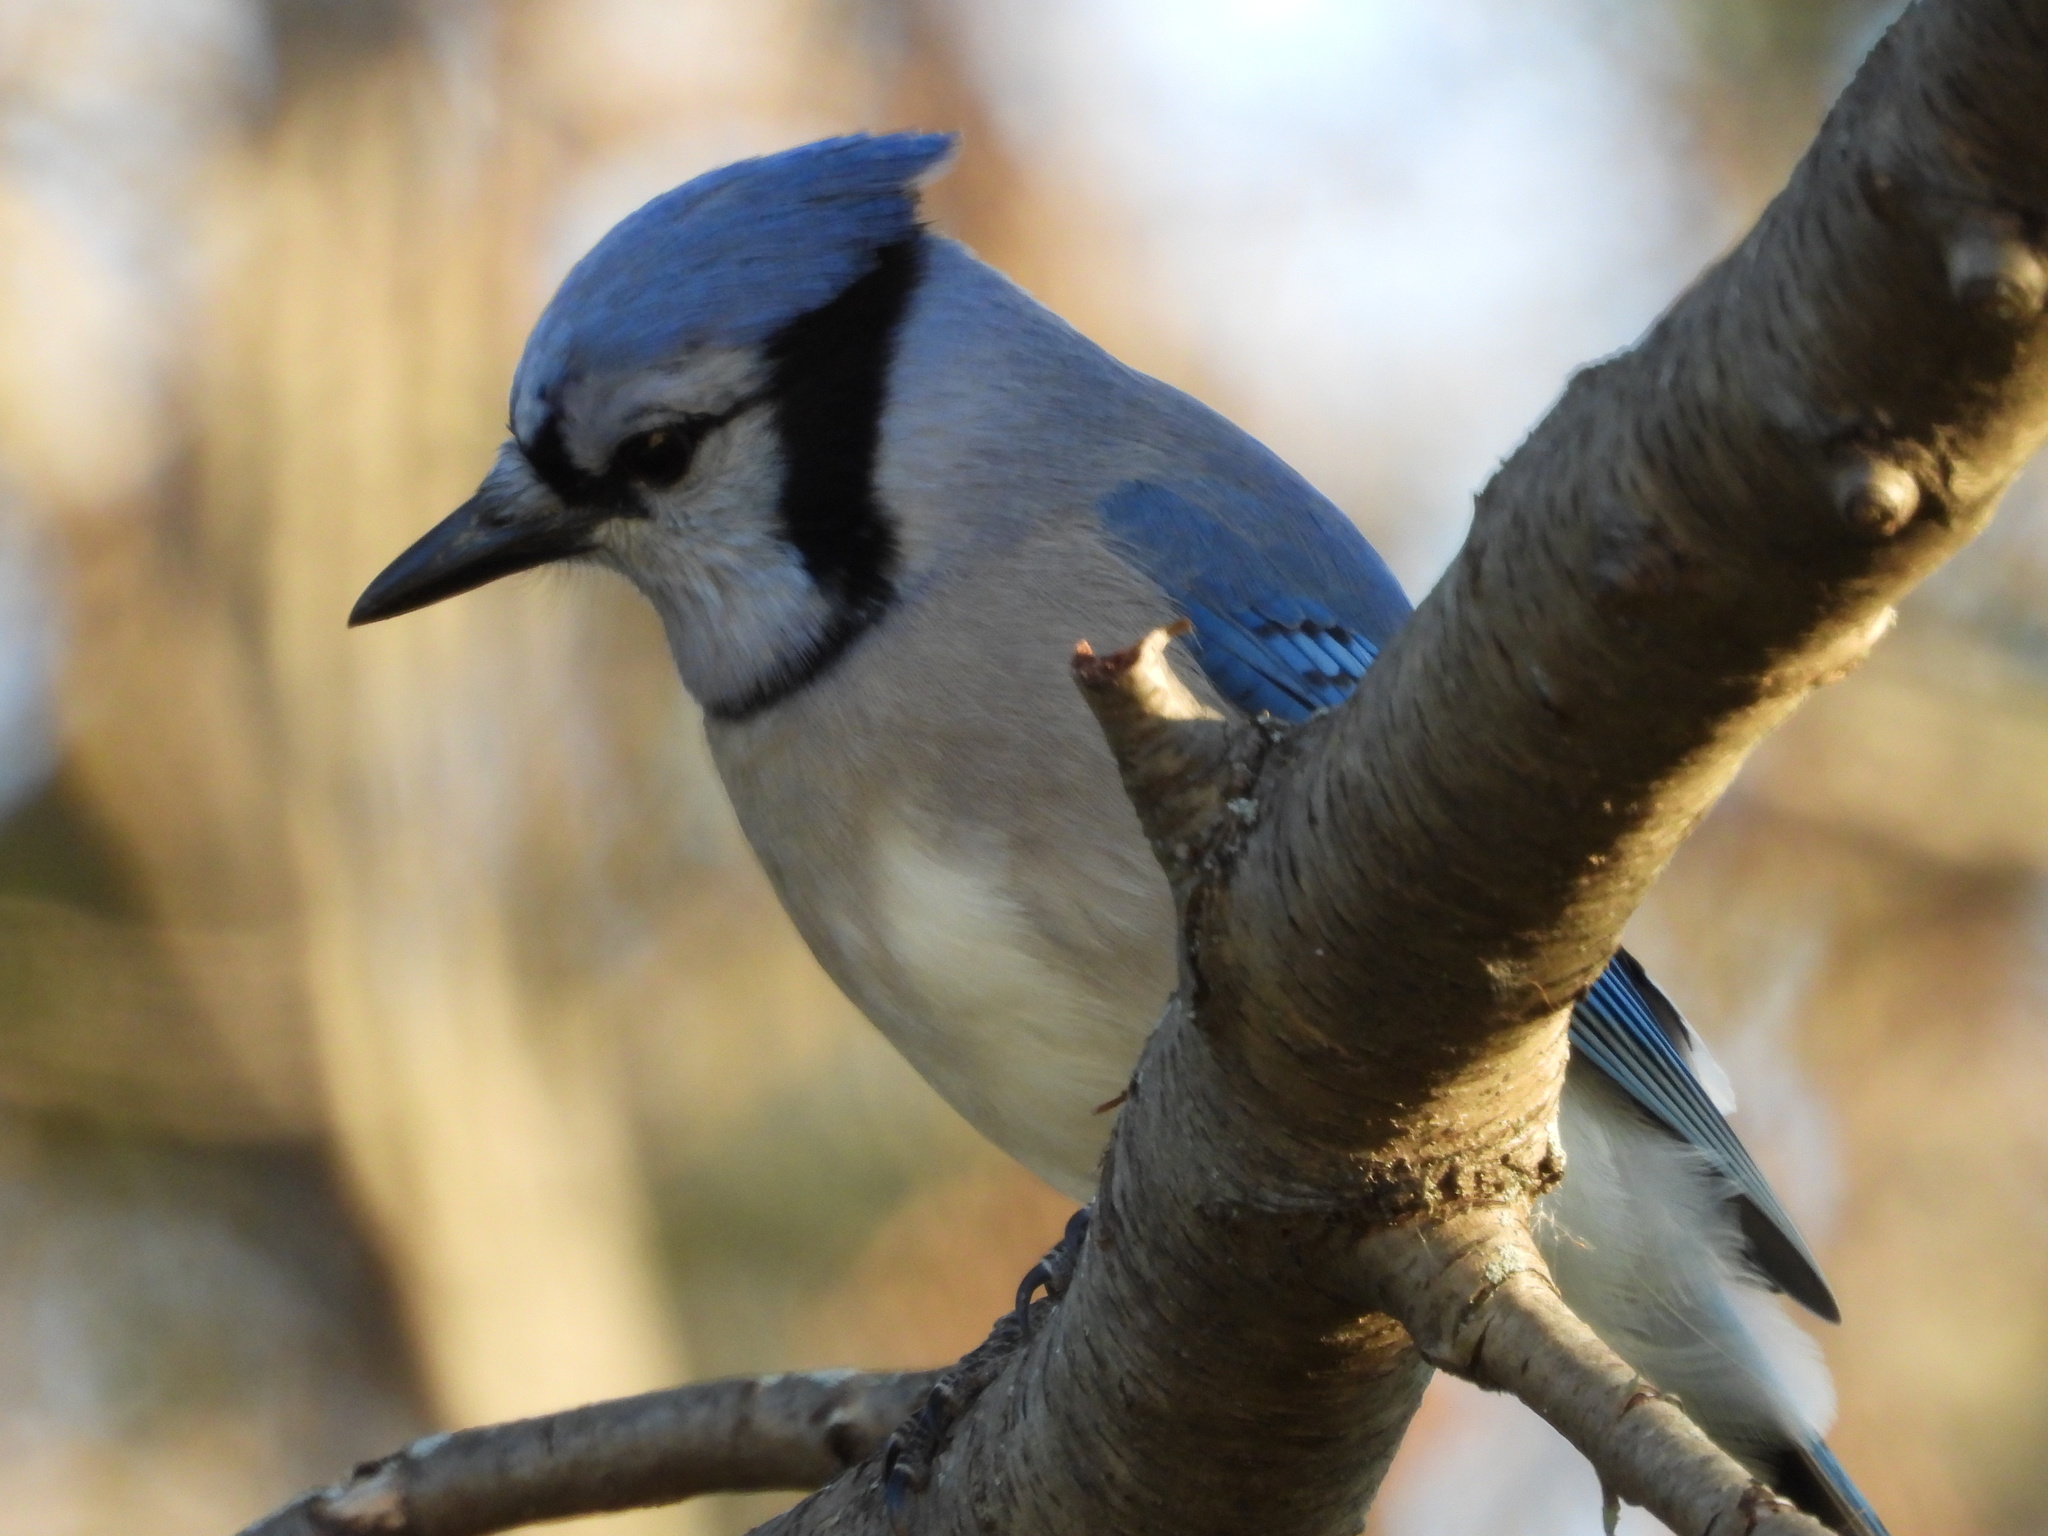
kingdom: Animalia
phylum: Chordata
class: Aves
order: Passeriformes
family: Corvidae
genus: Cyanocitta
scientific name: Cyanocitta cristata
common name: Blue jay
